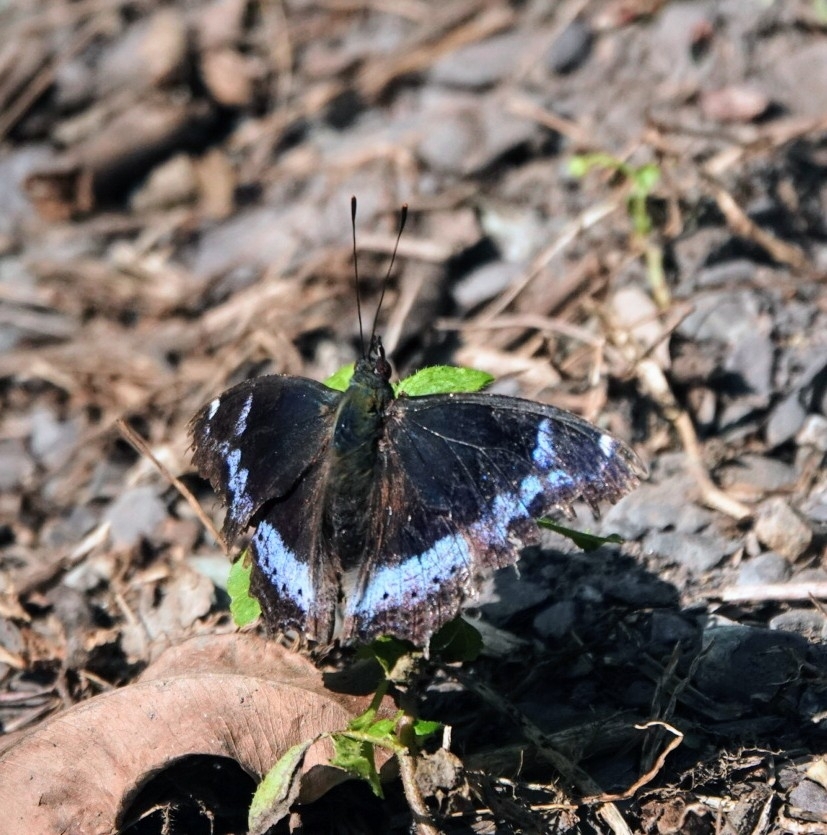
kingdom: Animalia
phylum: Arthropoda
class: Insecta
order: Lepidoptera
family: Nymphalidae
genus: Vanessa
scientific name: Vanessa Kaniska canace
